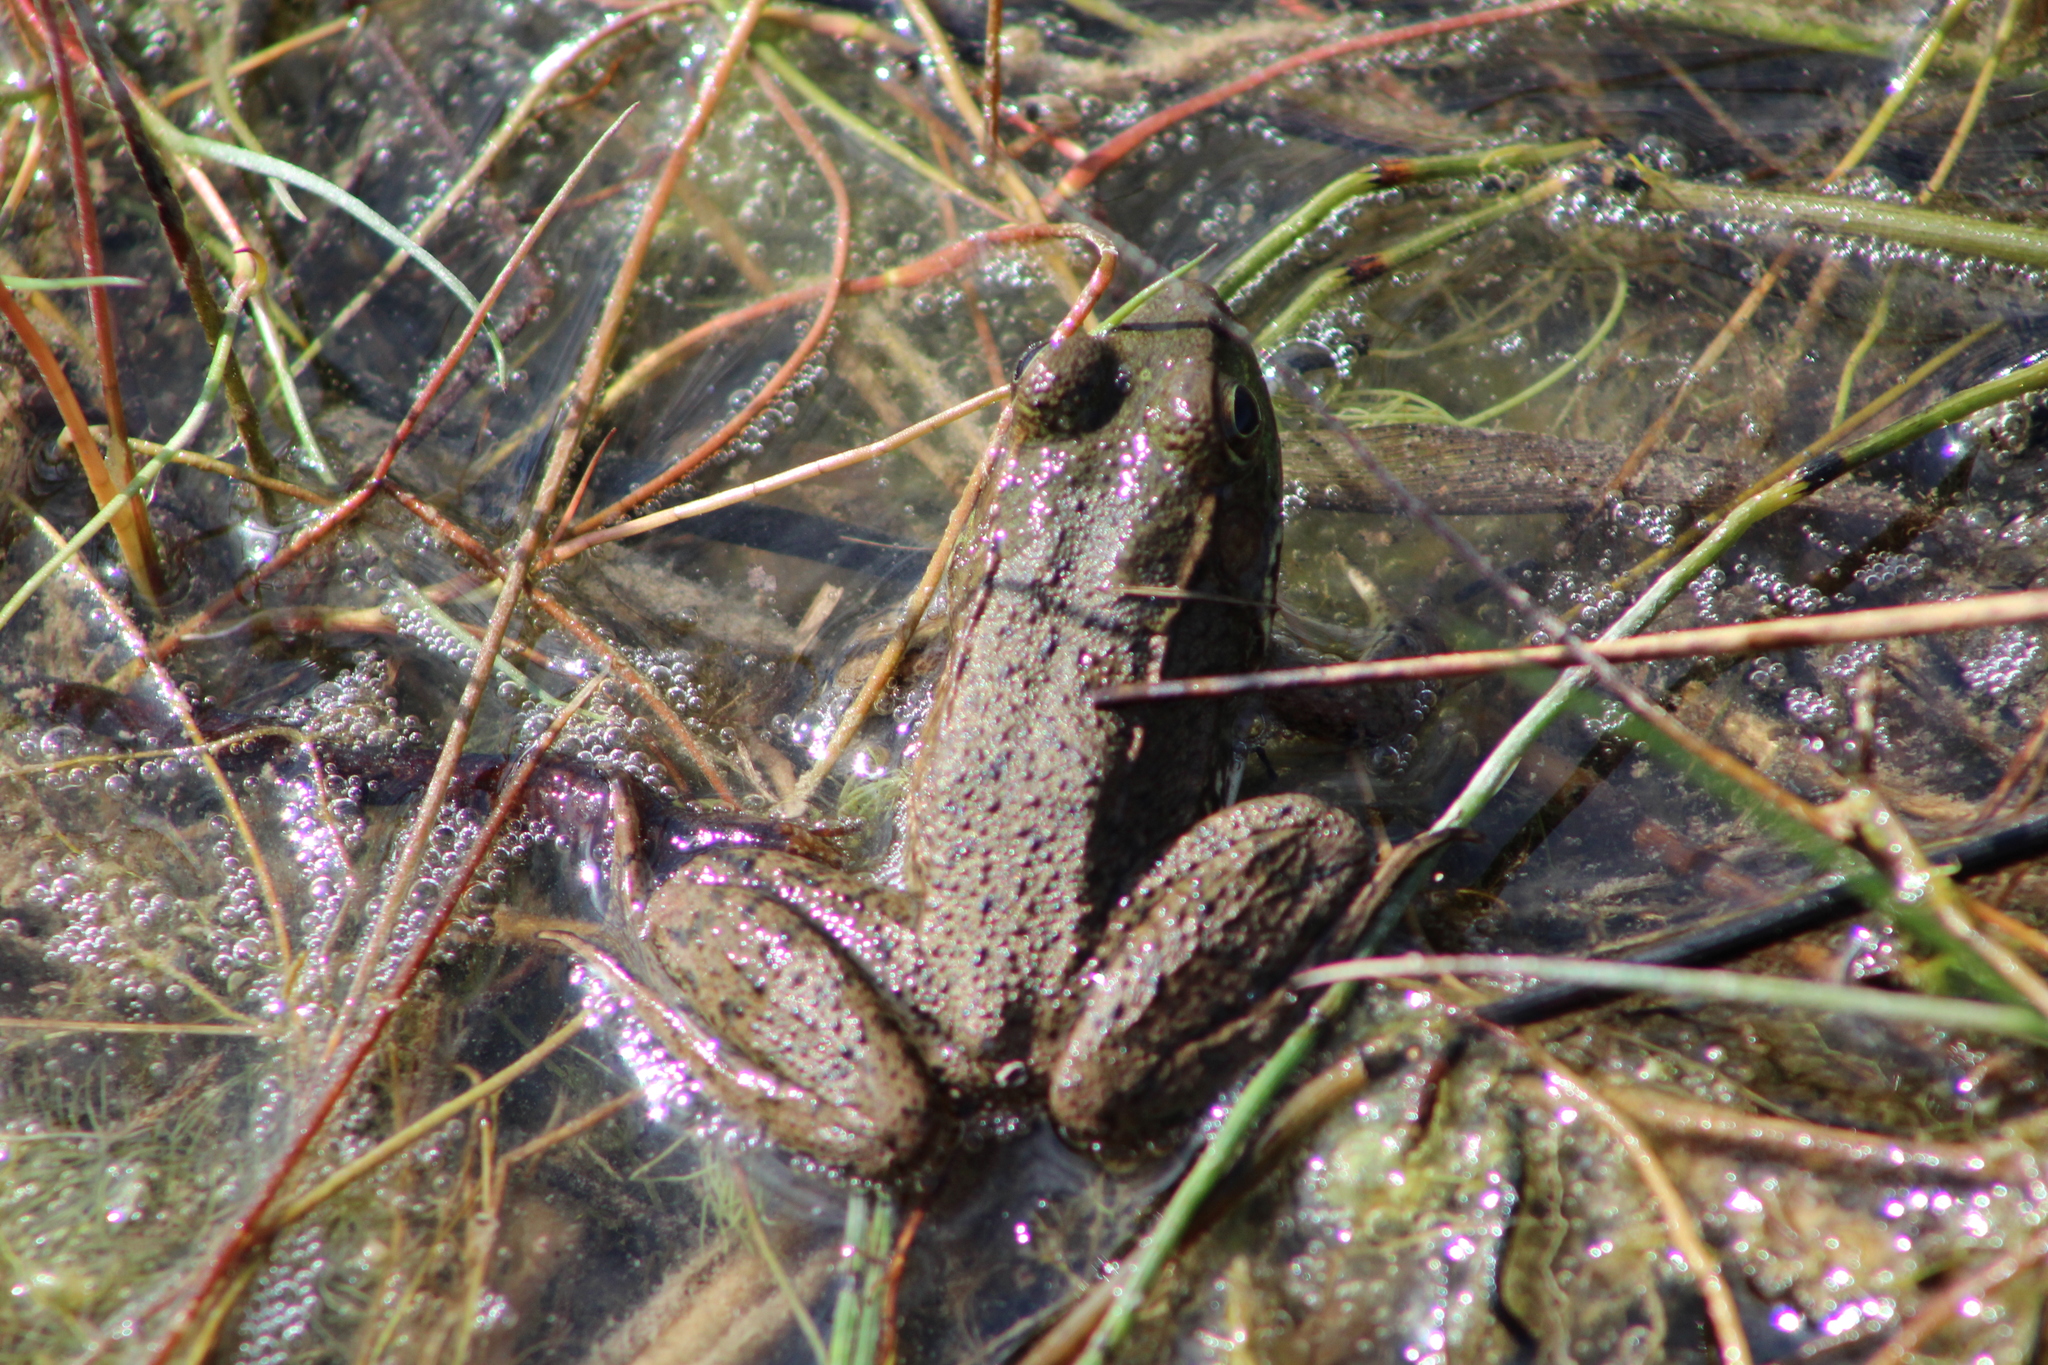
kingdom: Animalia
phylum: Chordata
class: Amphibia
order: Anura
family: Ranidae
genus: Lithobates
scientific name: Lithobates clamitans
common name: Green frog
